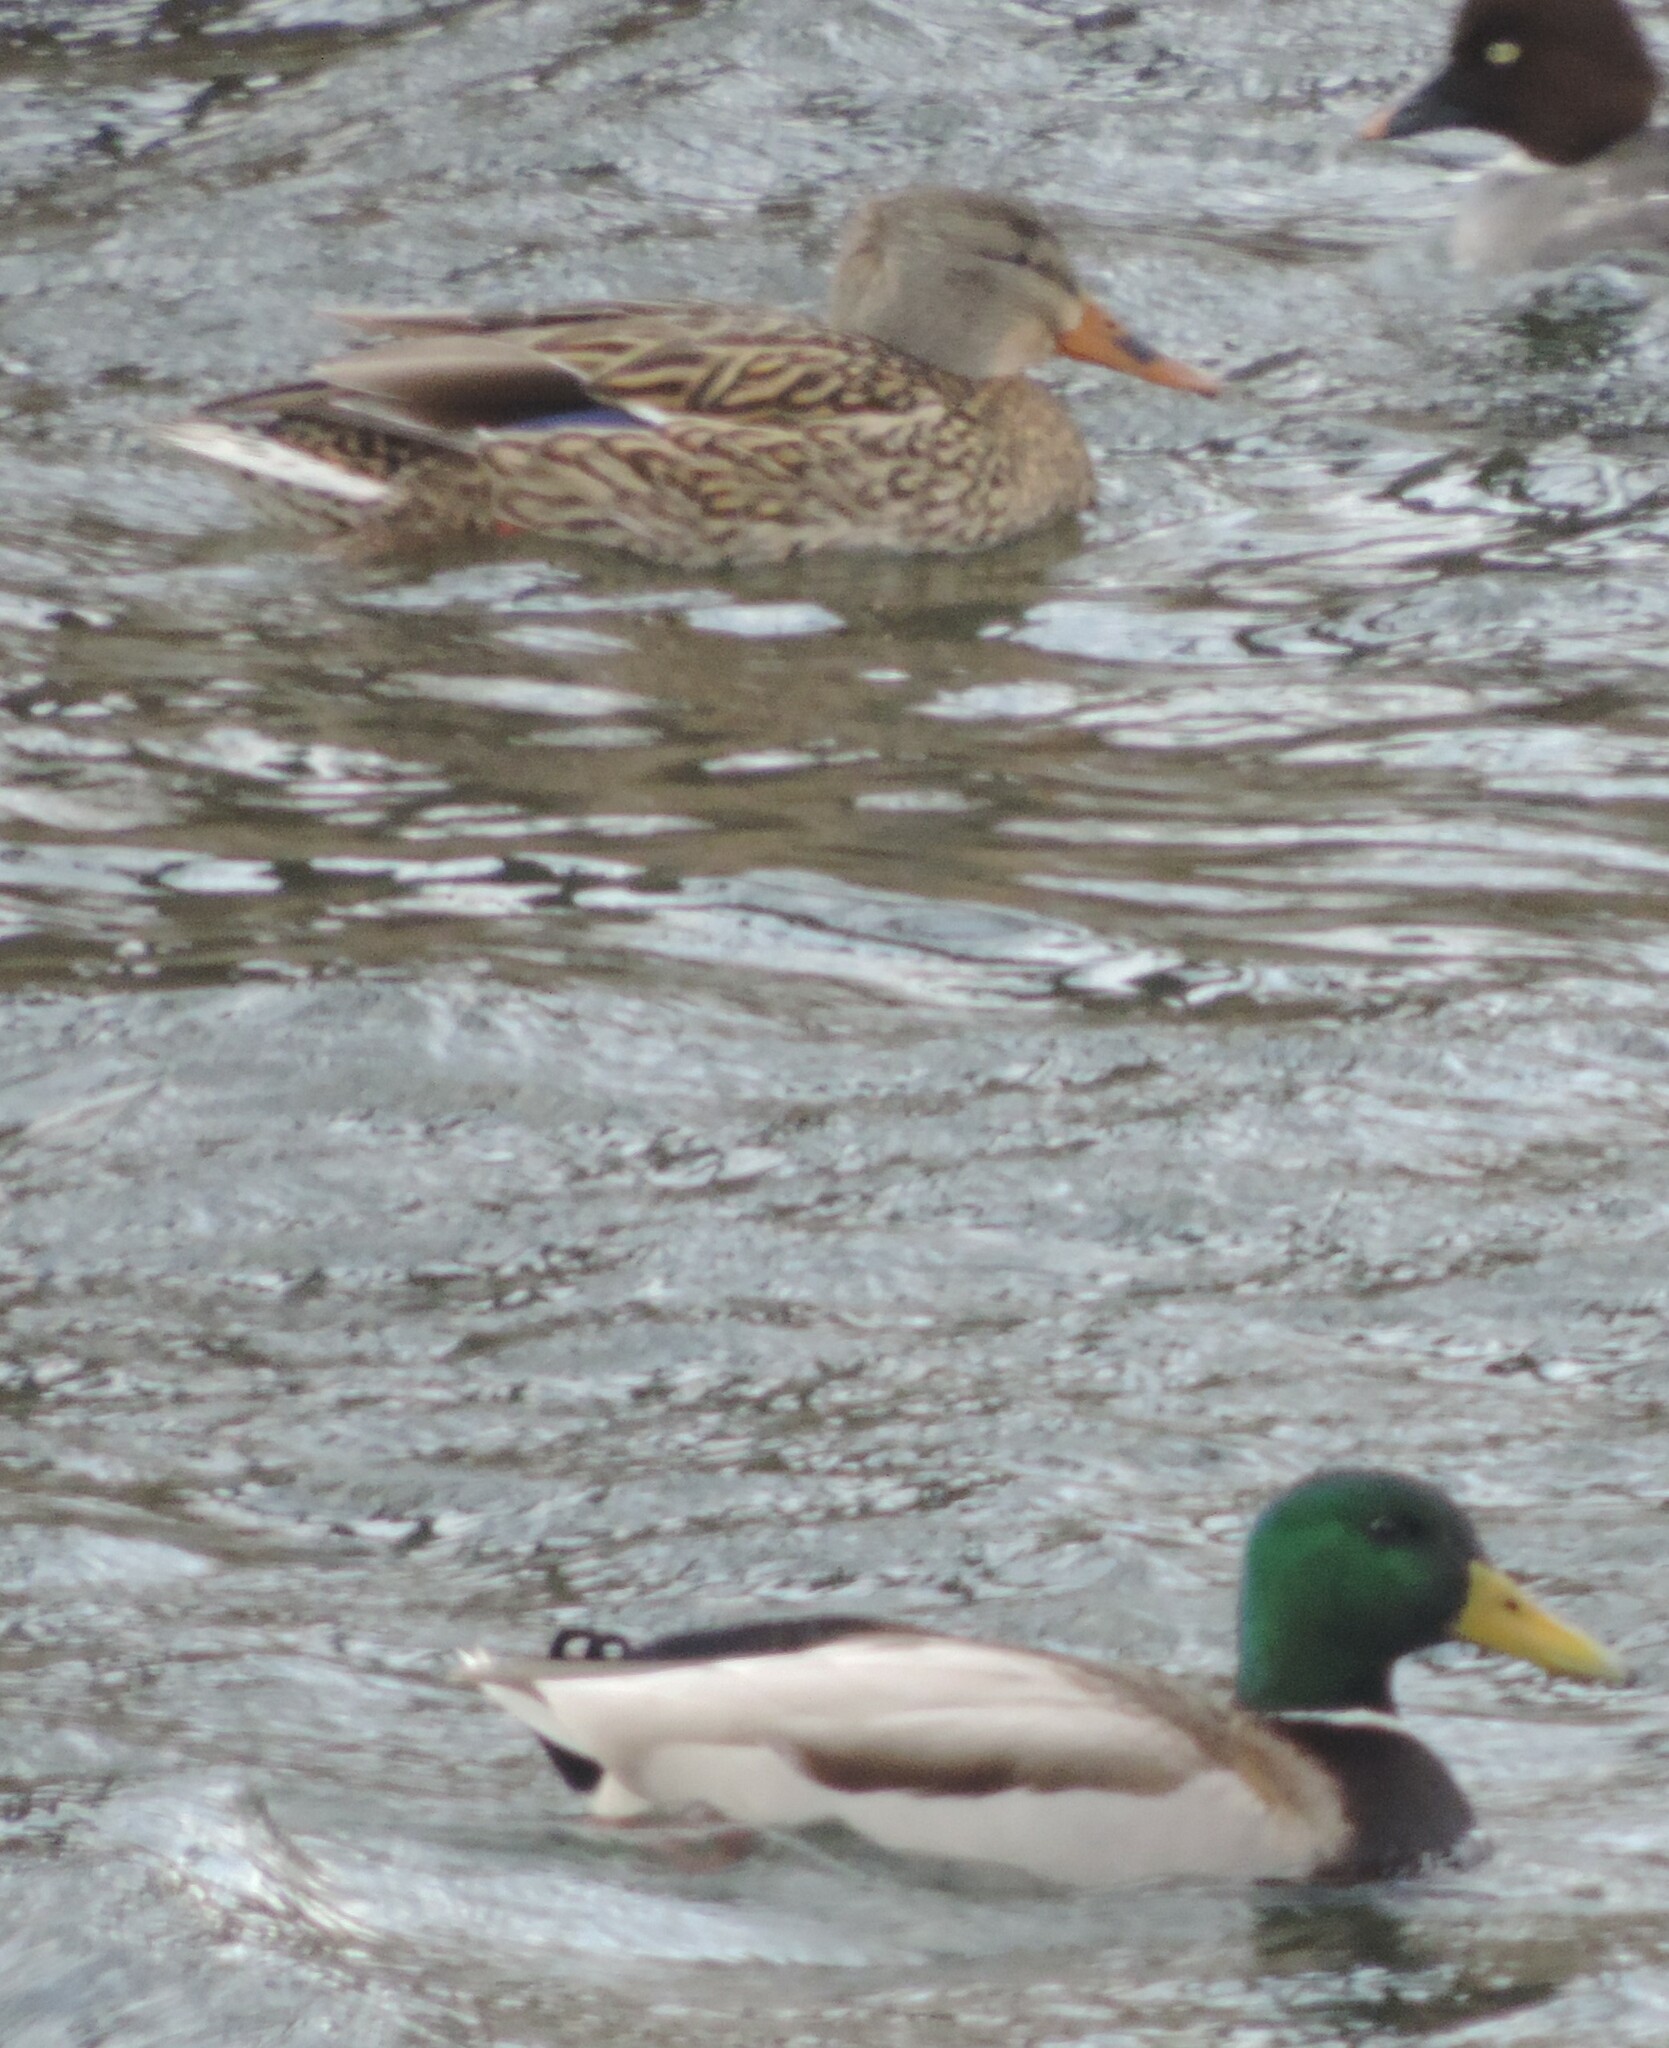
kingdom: Animalia
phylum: Chordata
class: Aves
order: Anseriformes
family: Anatidae
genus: Anas
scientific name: Anas platyrhynchos
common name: Mallard
